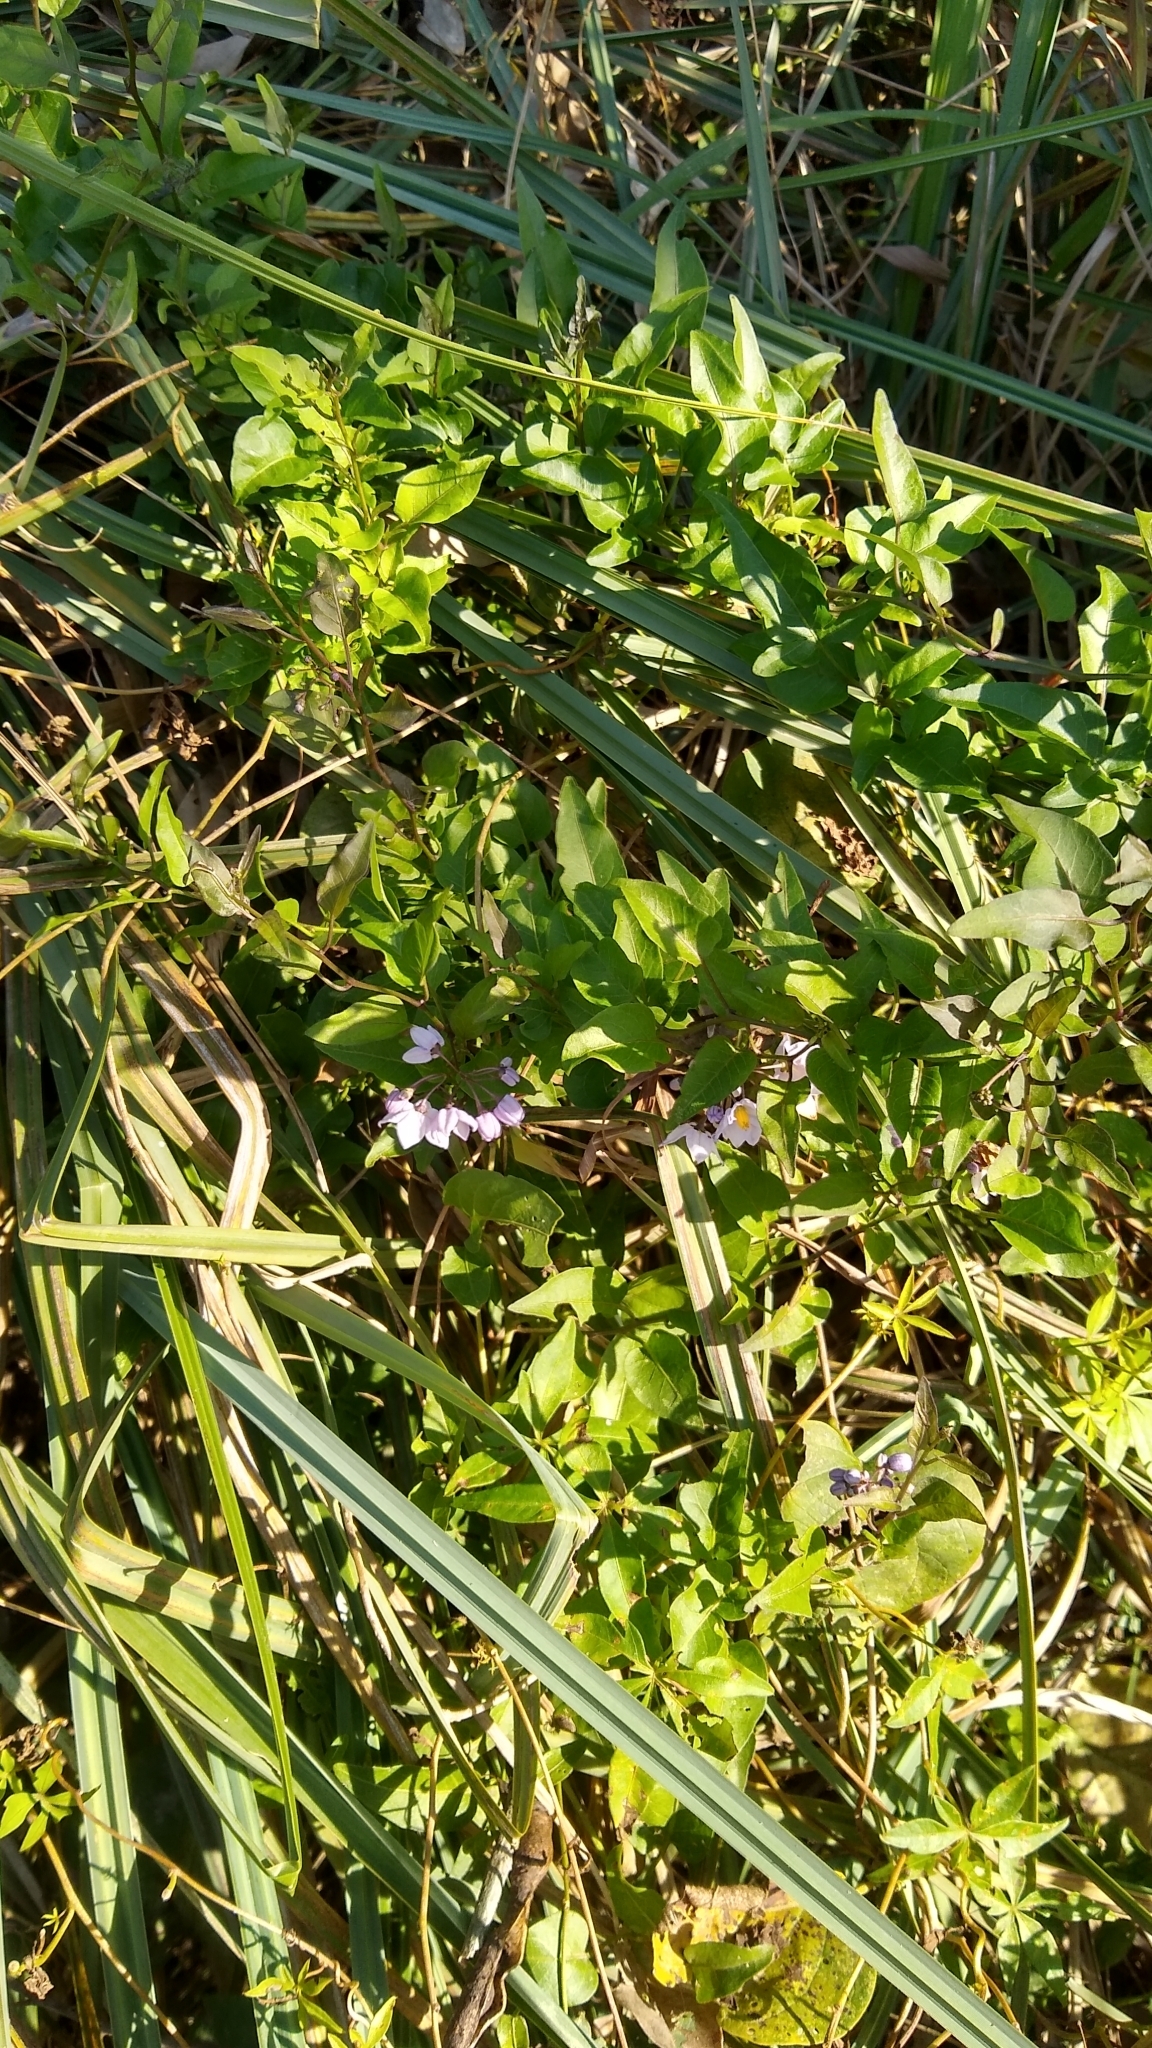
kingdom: Plantae
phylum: Tracheophyta
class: Magnoliopsida
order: Solanales
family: Solanaceae
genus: Solanum
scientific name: Solanum laxum
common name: Nightshade
